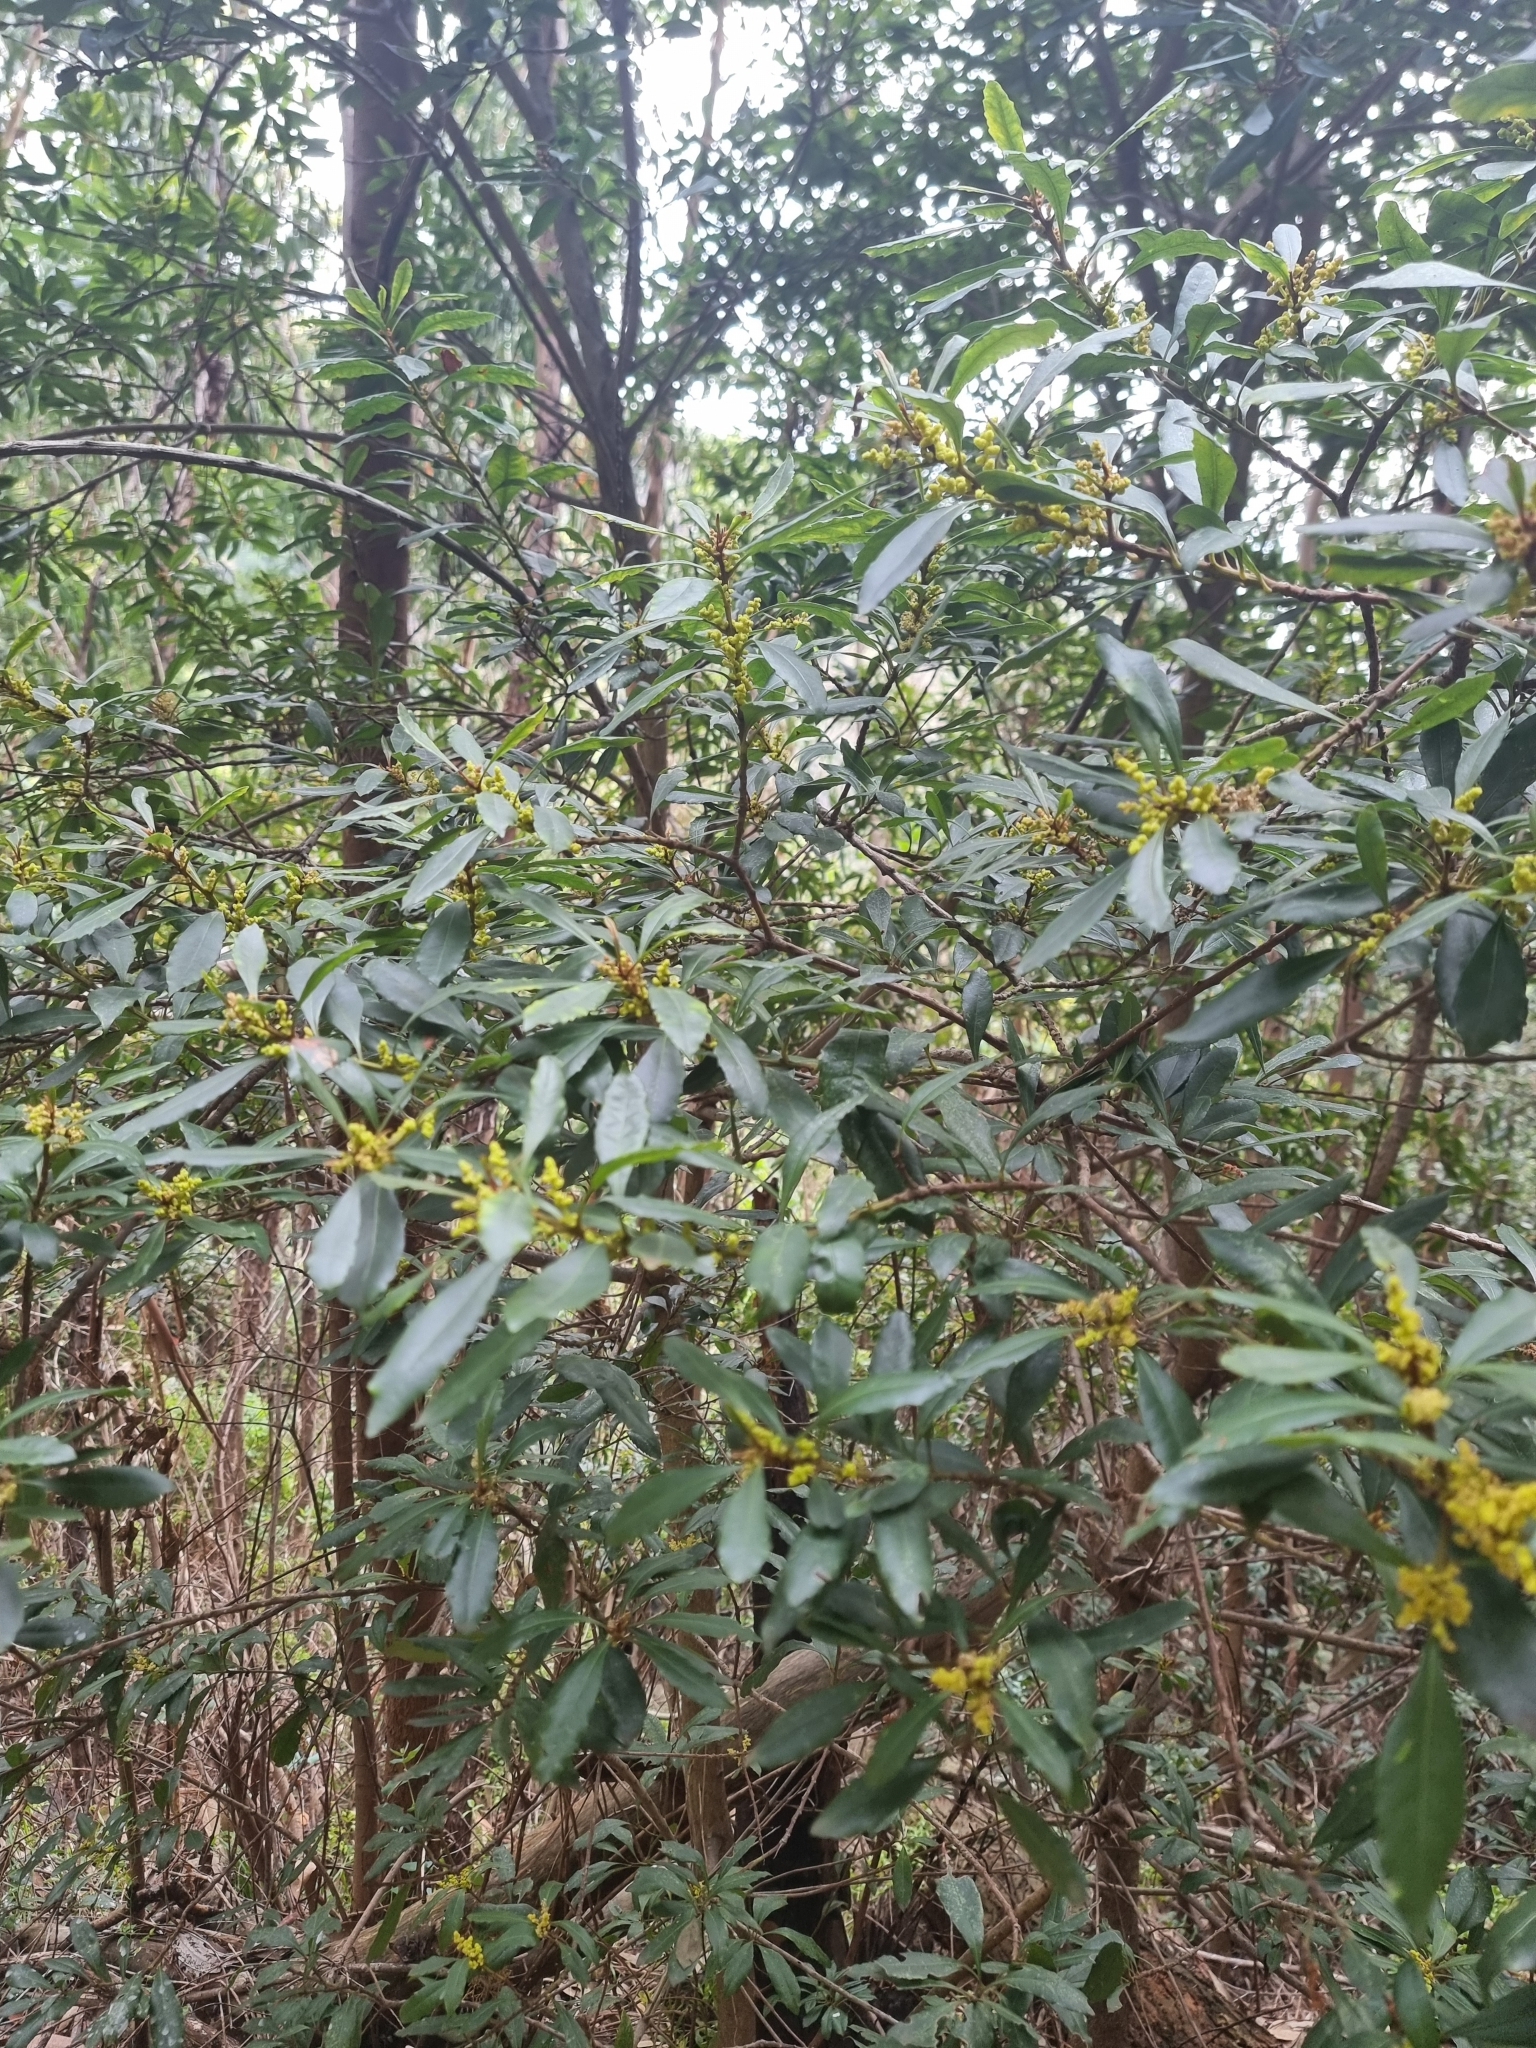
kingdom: Plantae
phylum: Tracheophyta
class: Magnoliopsida
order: Fagales
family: Myricaceae
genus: Morella
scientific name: Morella faya
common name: Firetree
